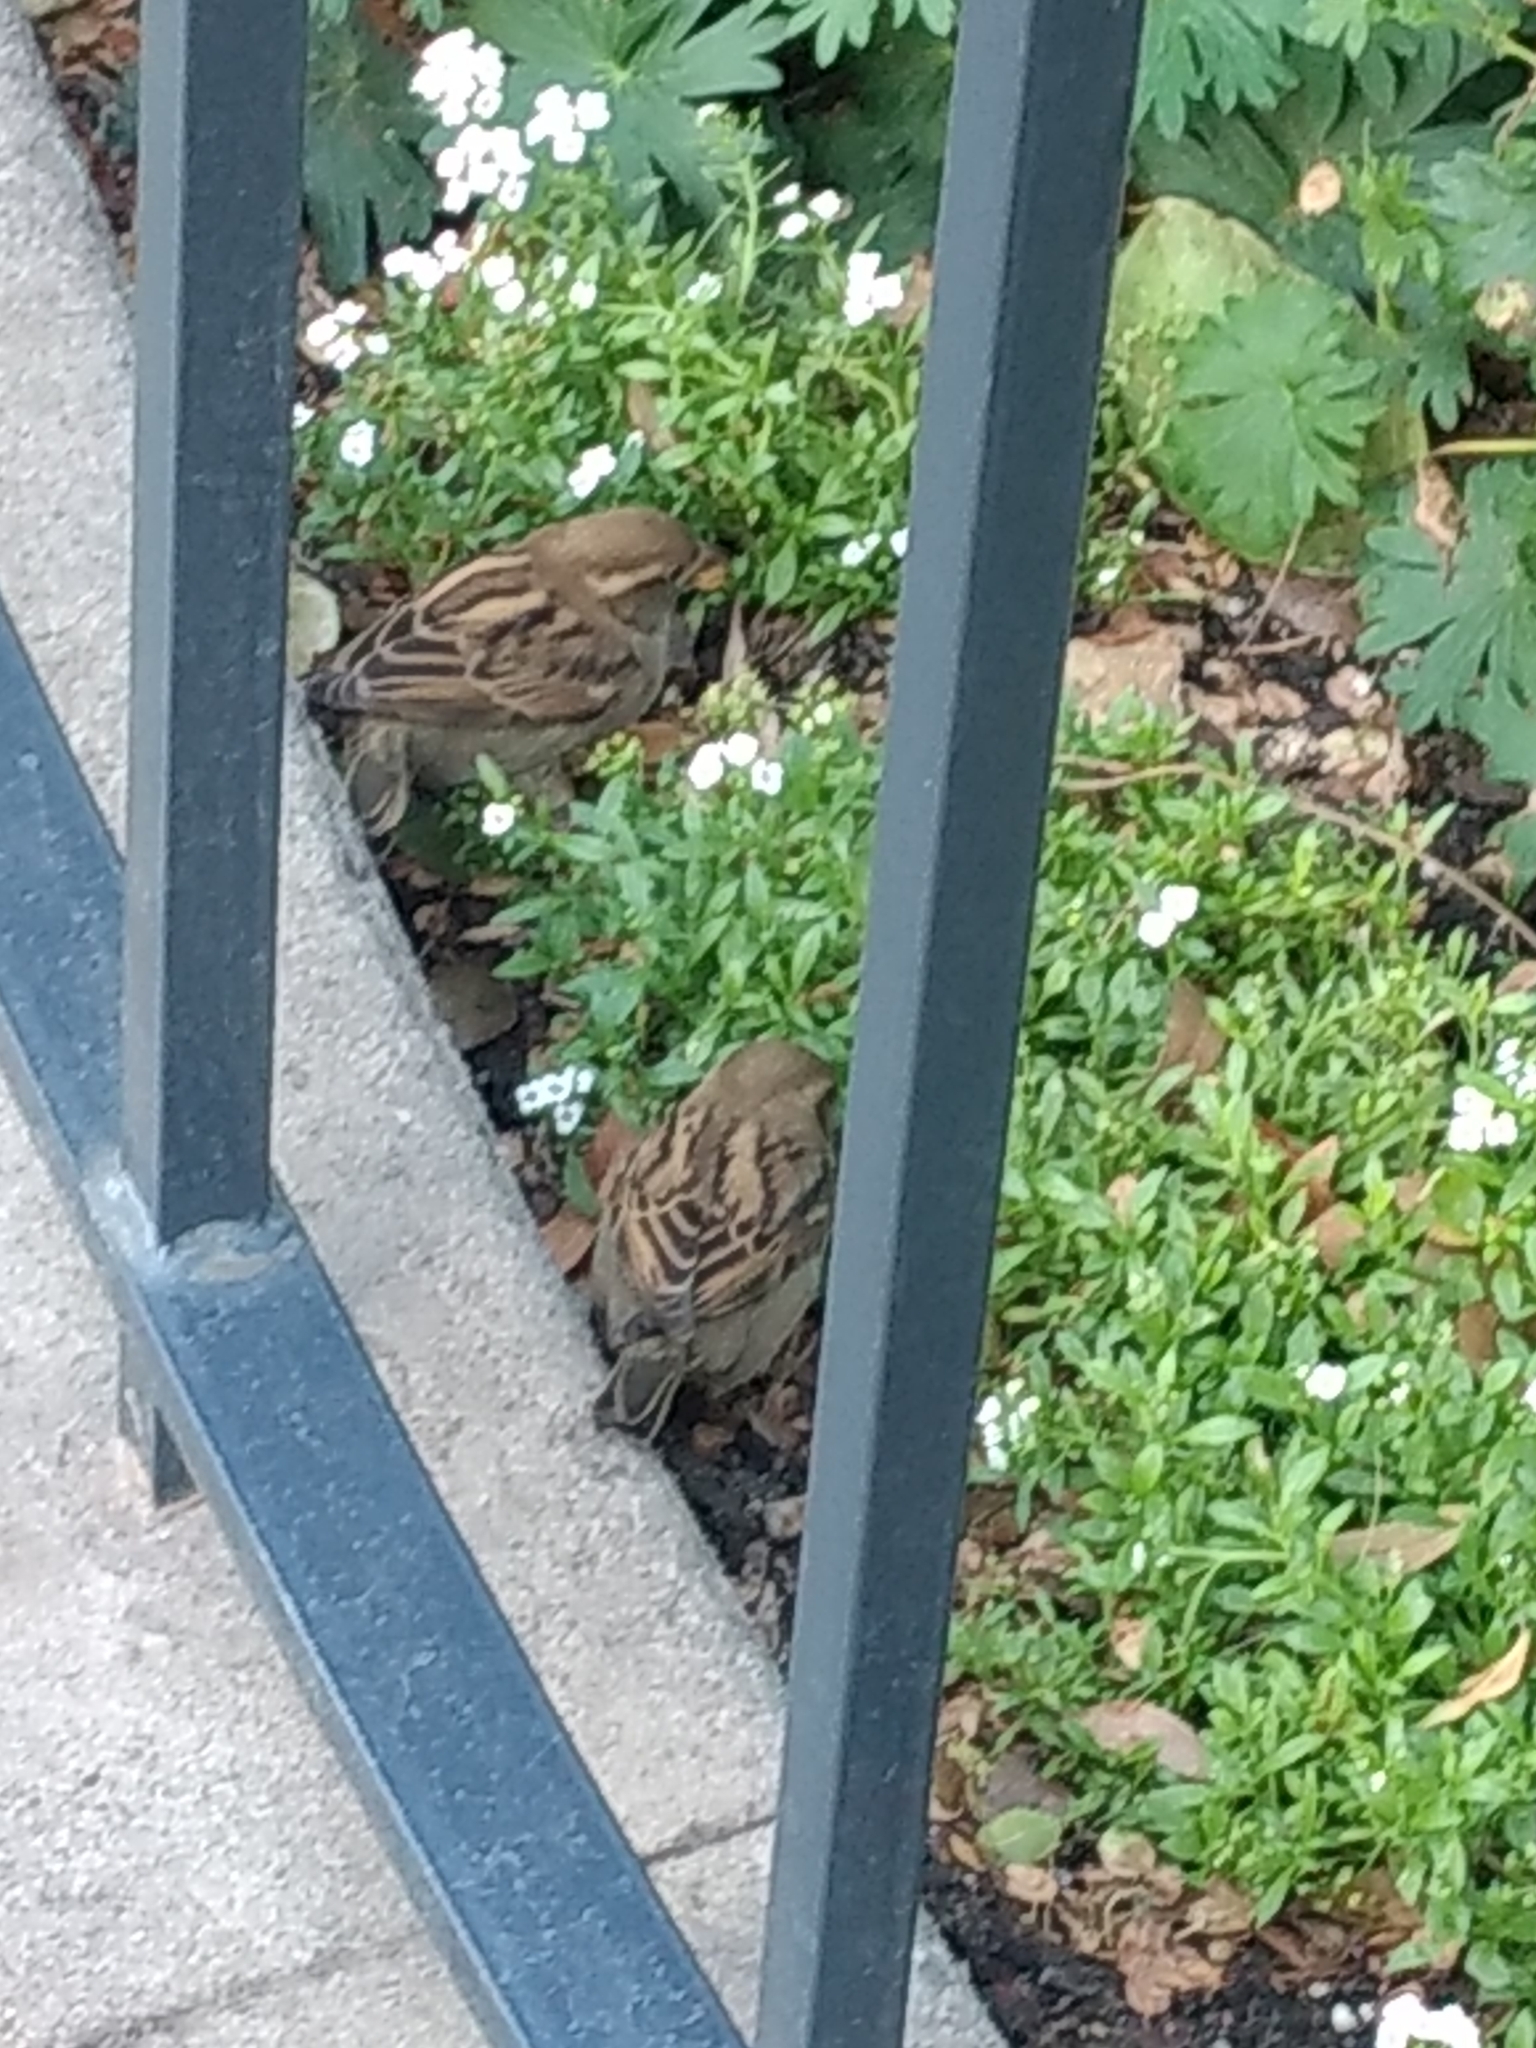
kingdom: Animalia
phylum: Chordata
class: Aves
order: Passeriformes
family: Passeridae
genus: Passer
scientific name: Passer domesticus
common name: House sparrow
